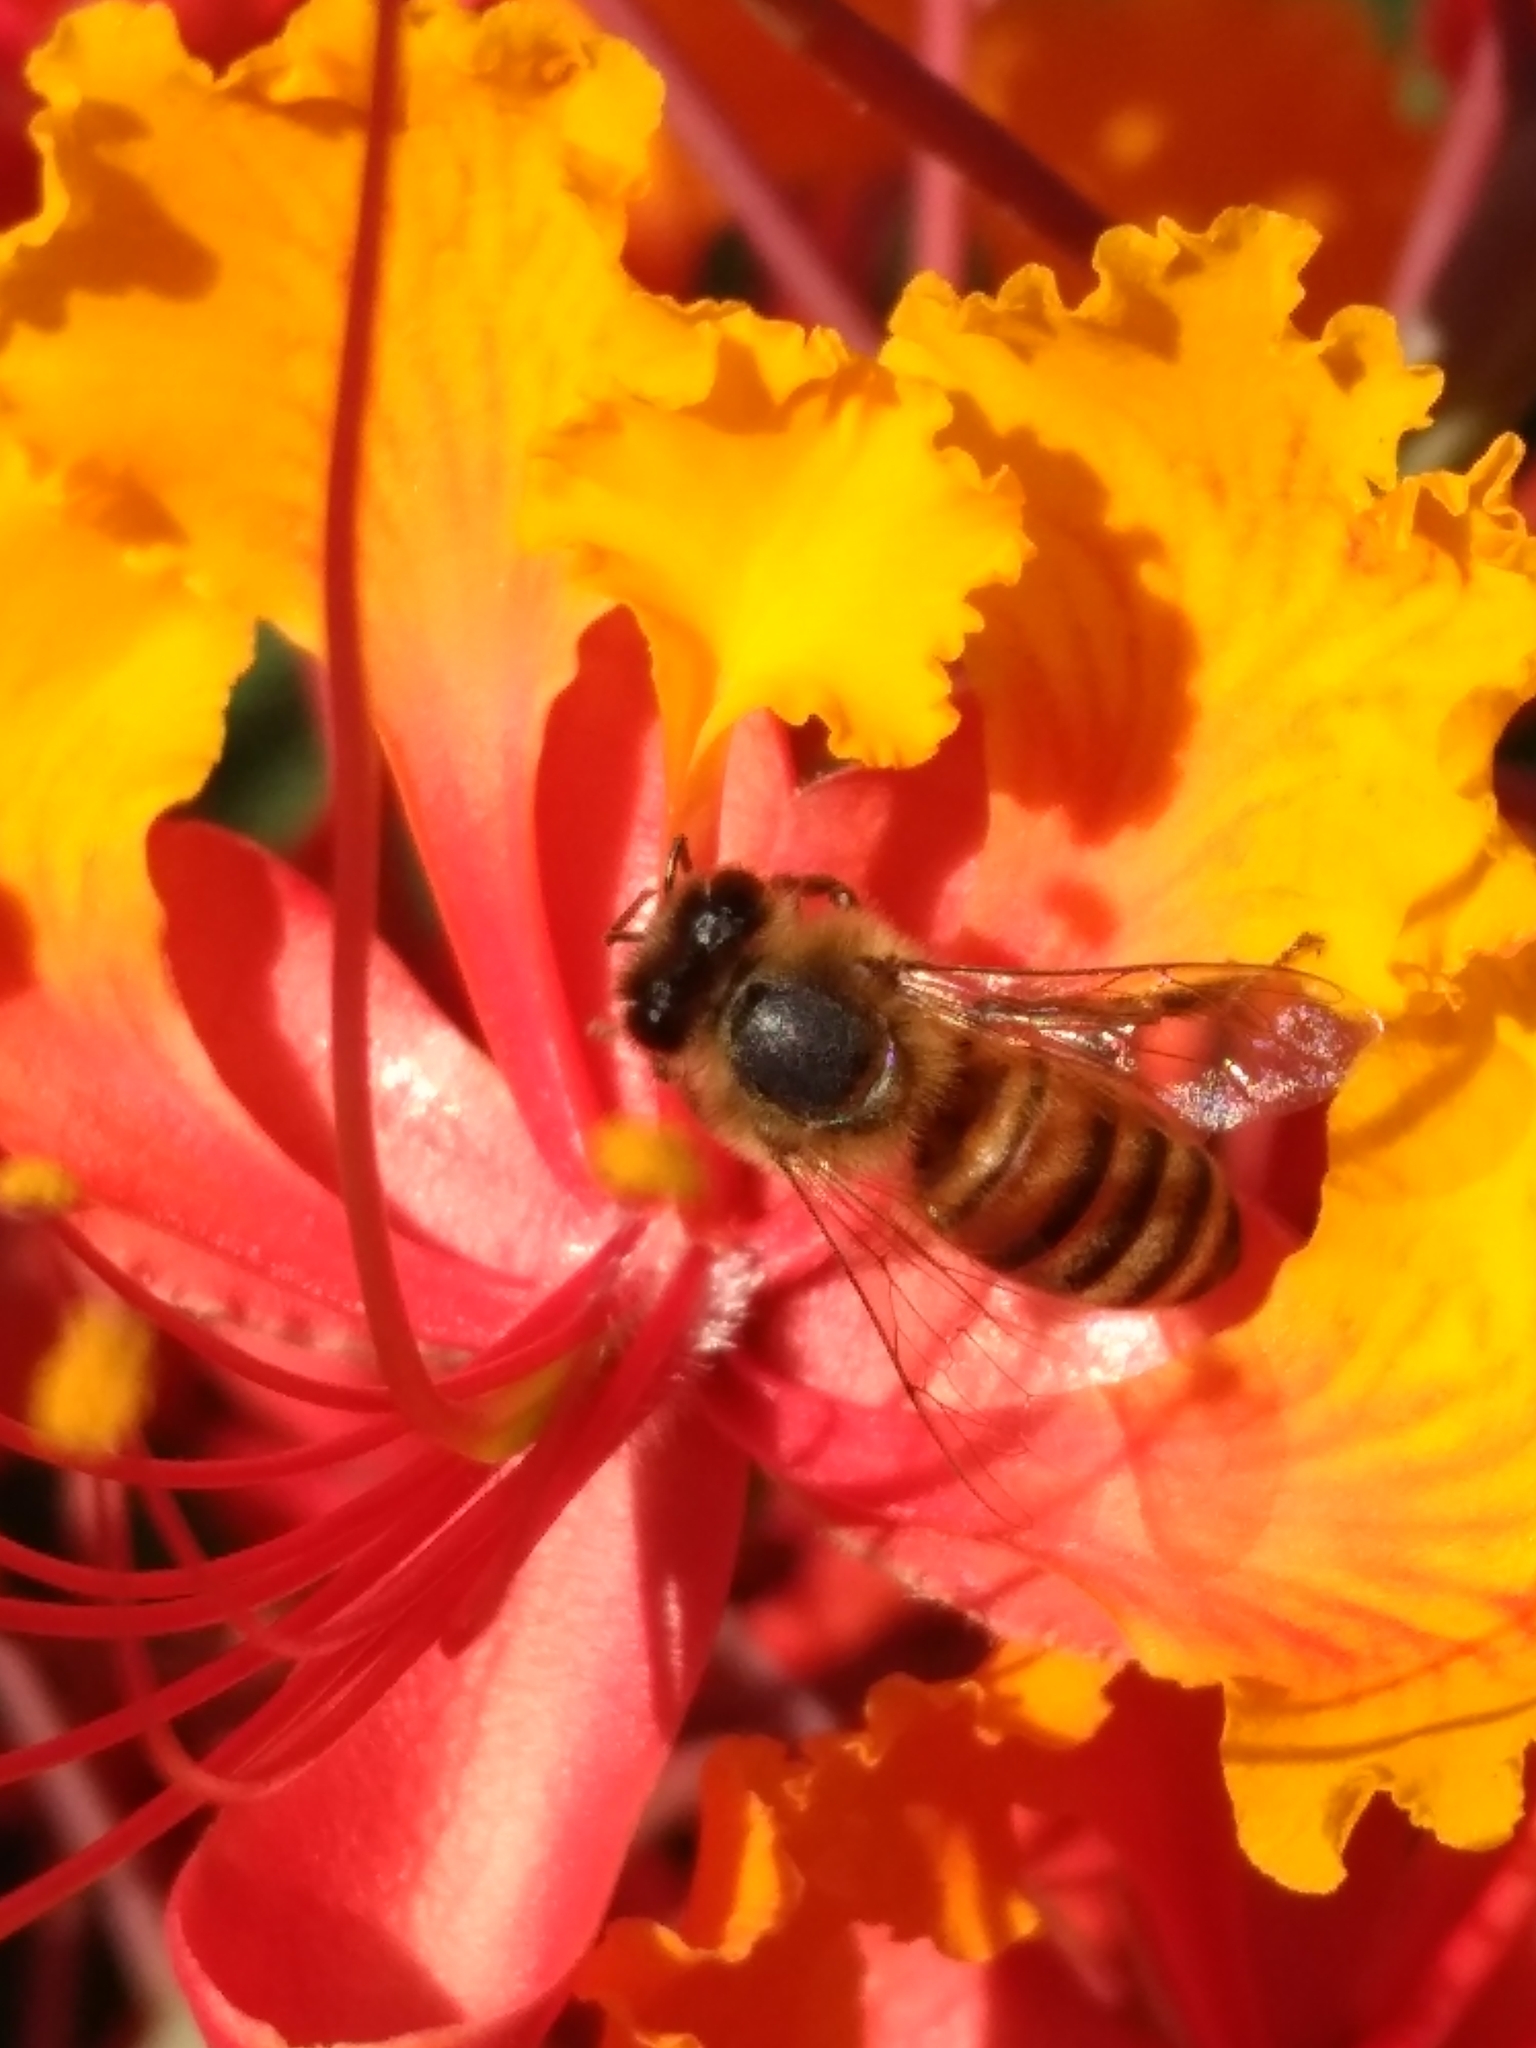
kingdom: Animalia
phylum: Arthropoda
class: Insecta
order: Hymenoptera
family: Apidae
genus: Apis
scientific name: Apis mellifera
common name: Honey bee
